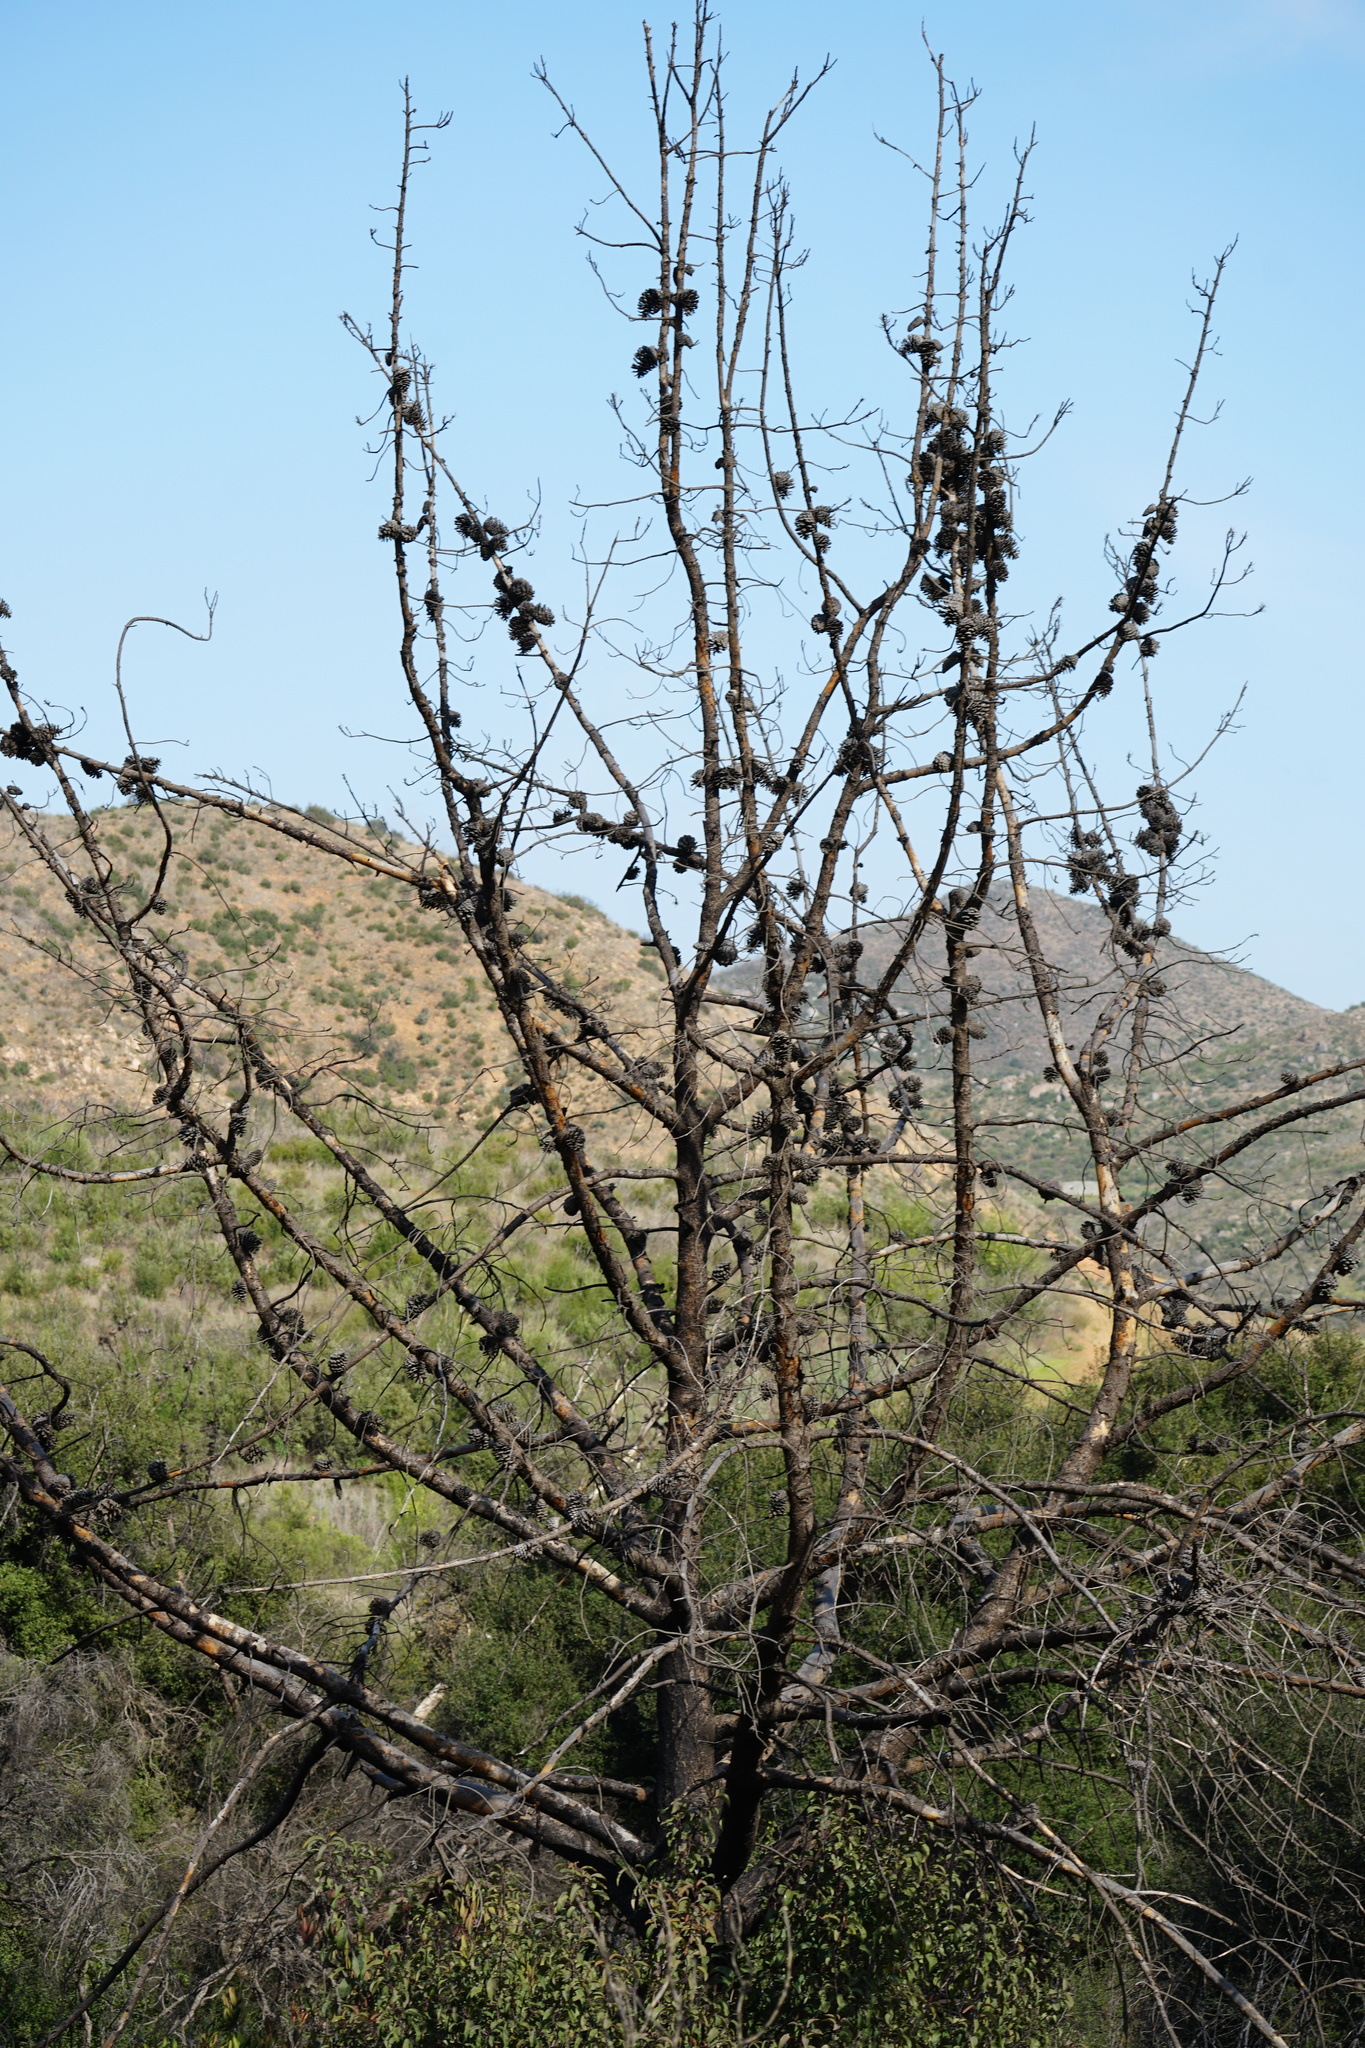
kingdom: Plantae
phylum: Tracheophyta
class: Pinopsida
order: Pinales
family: Pinaceae
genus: Pinus
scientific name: Pinus attenuata
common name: Knobcone pine
